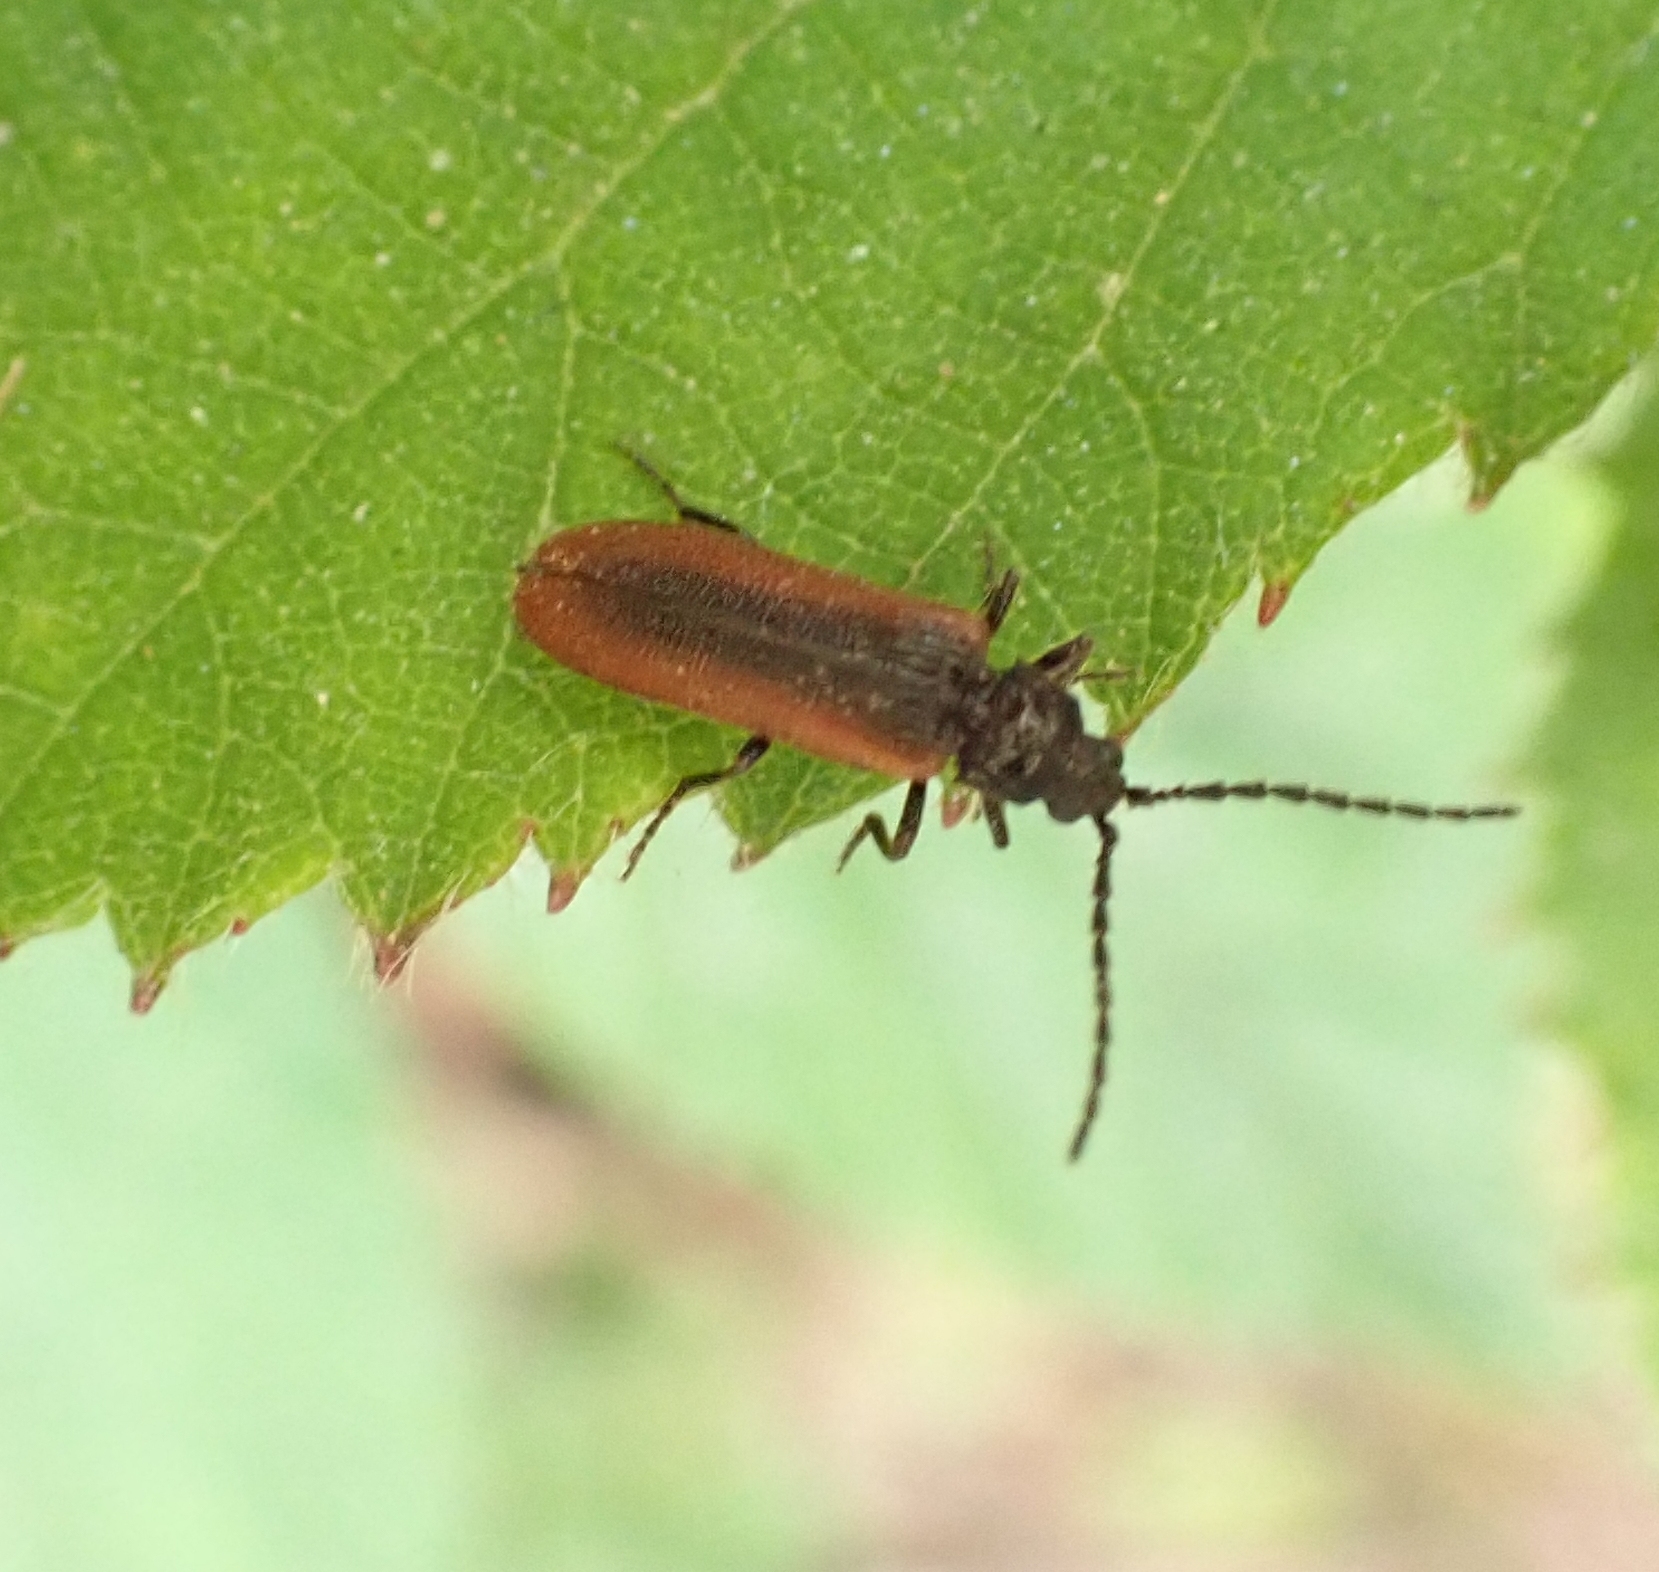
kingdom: Animalia
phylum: Arthropoda
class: Insecta
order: Coleoptera
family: Omalisidae
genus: Omalisus
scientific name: Omalisus fontisbellaquei
